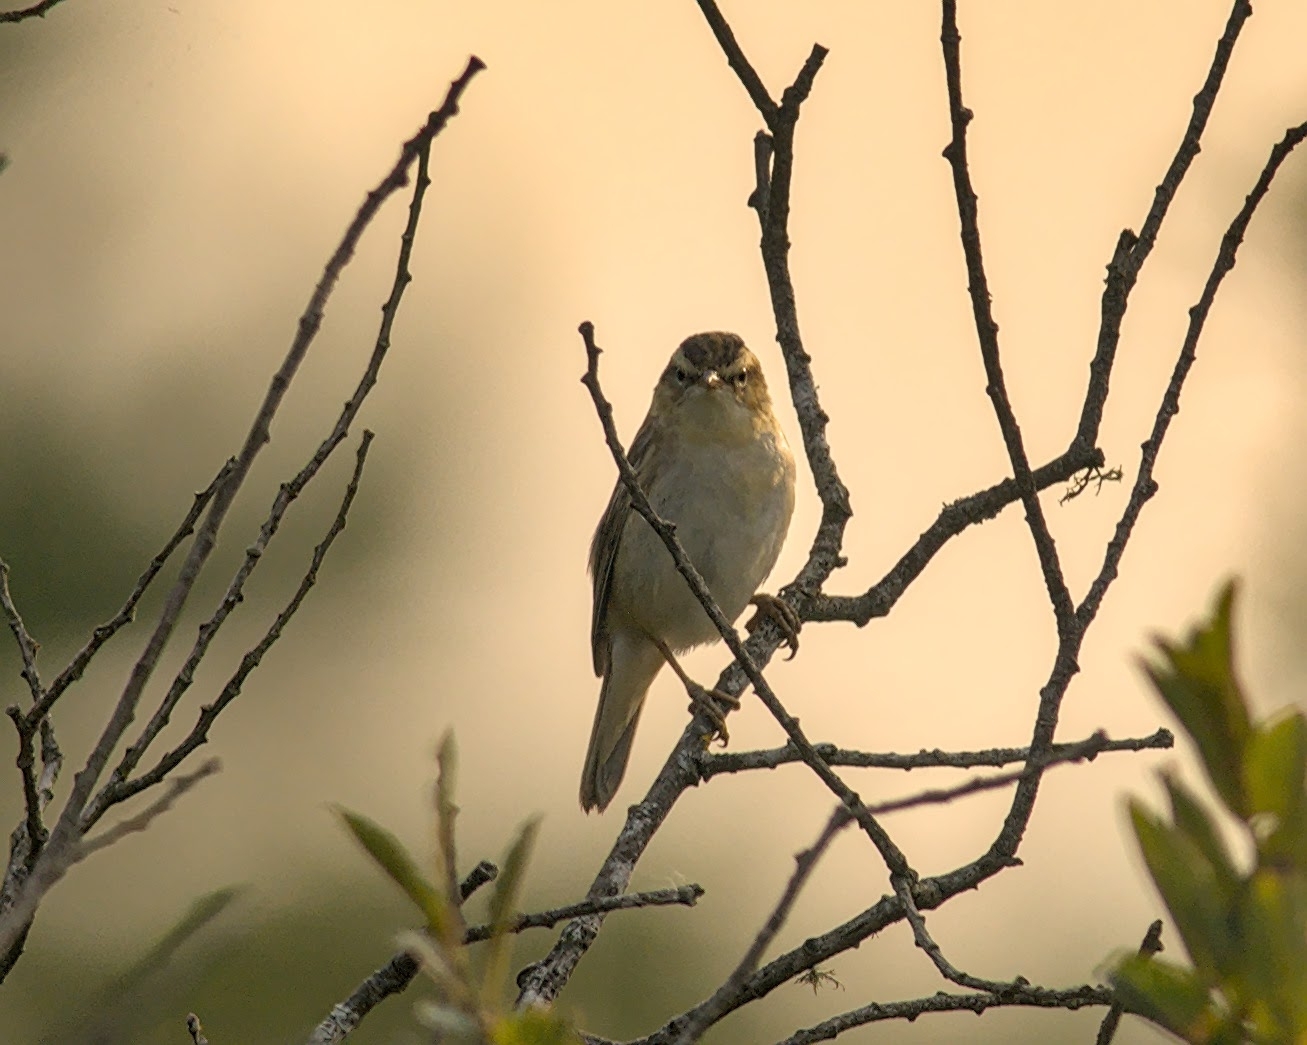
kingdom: Animalia
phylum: Chordata
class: Aves
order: Passeriformes
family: Acrocephalidae
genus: Acrocephalus
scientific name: Acrocephalus schoenobaenus
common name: Sedge warbler
